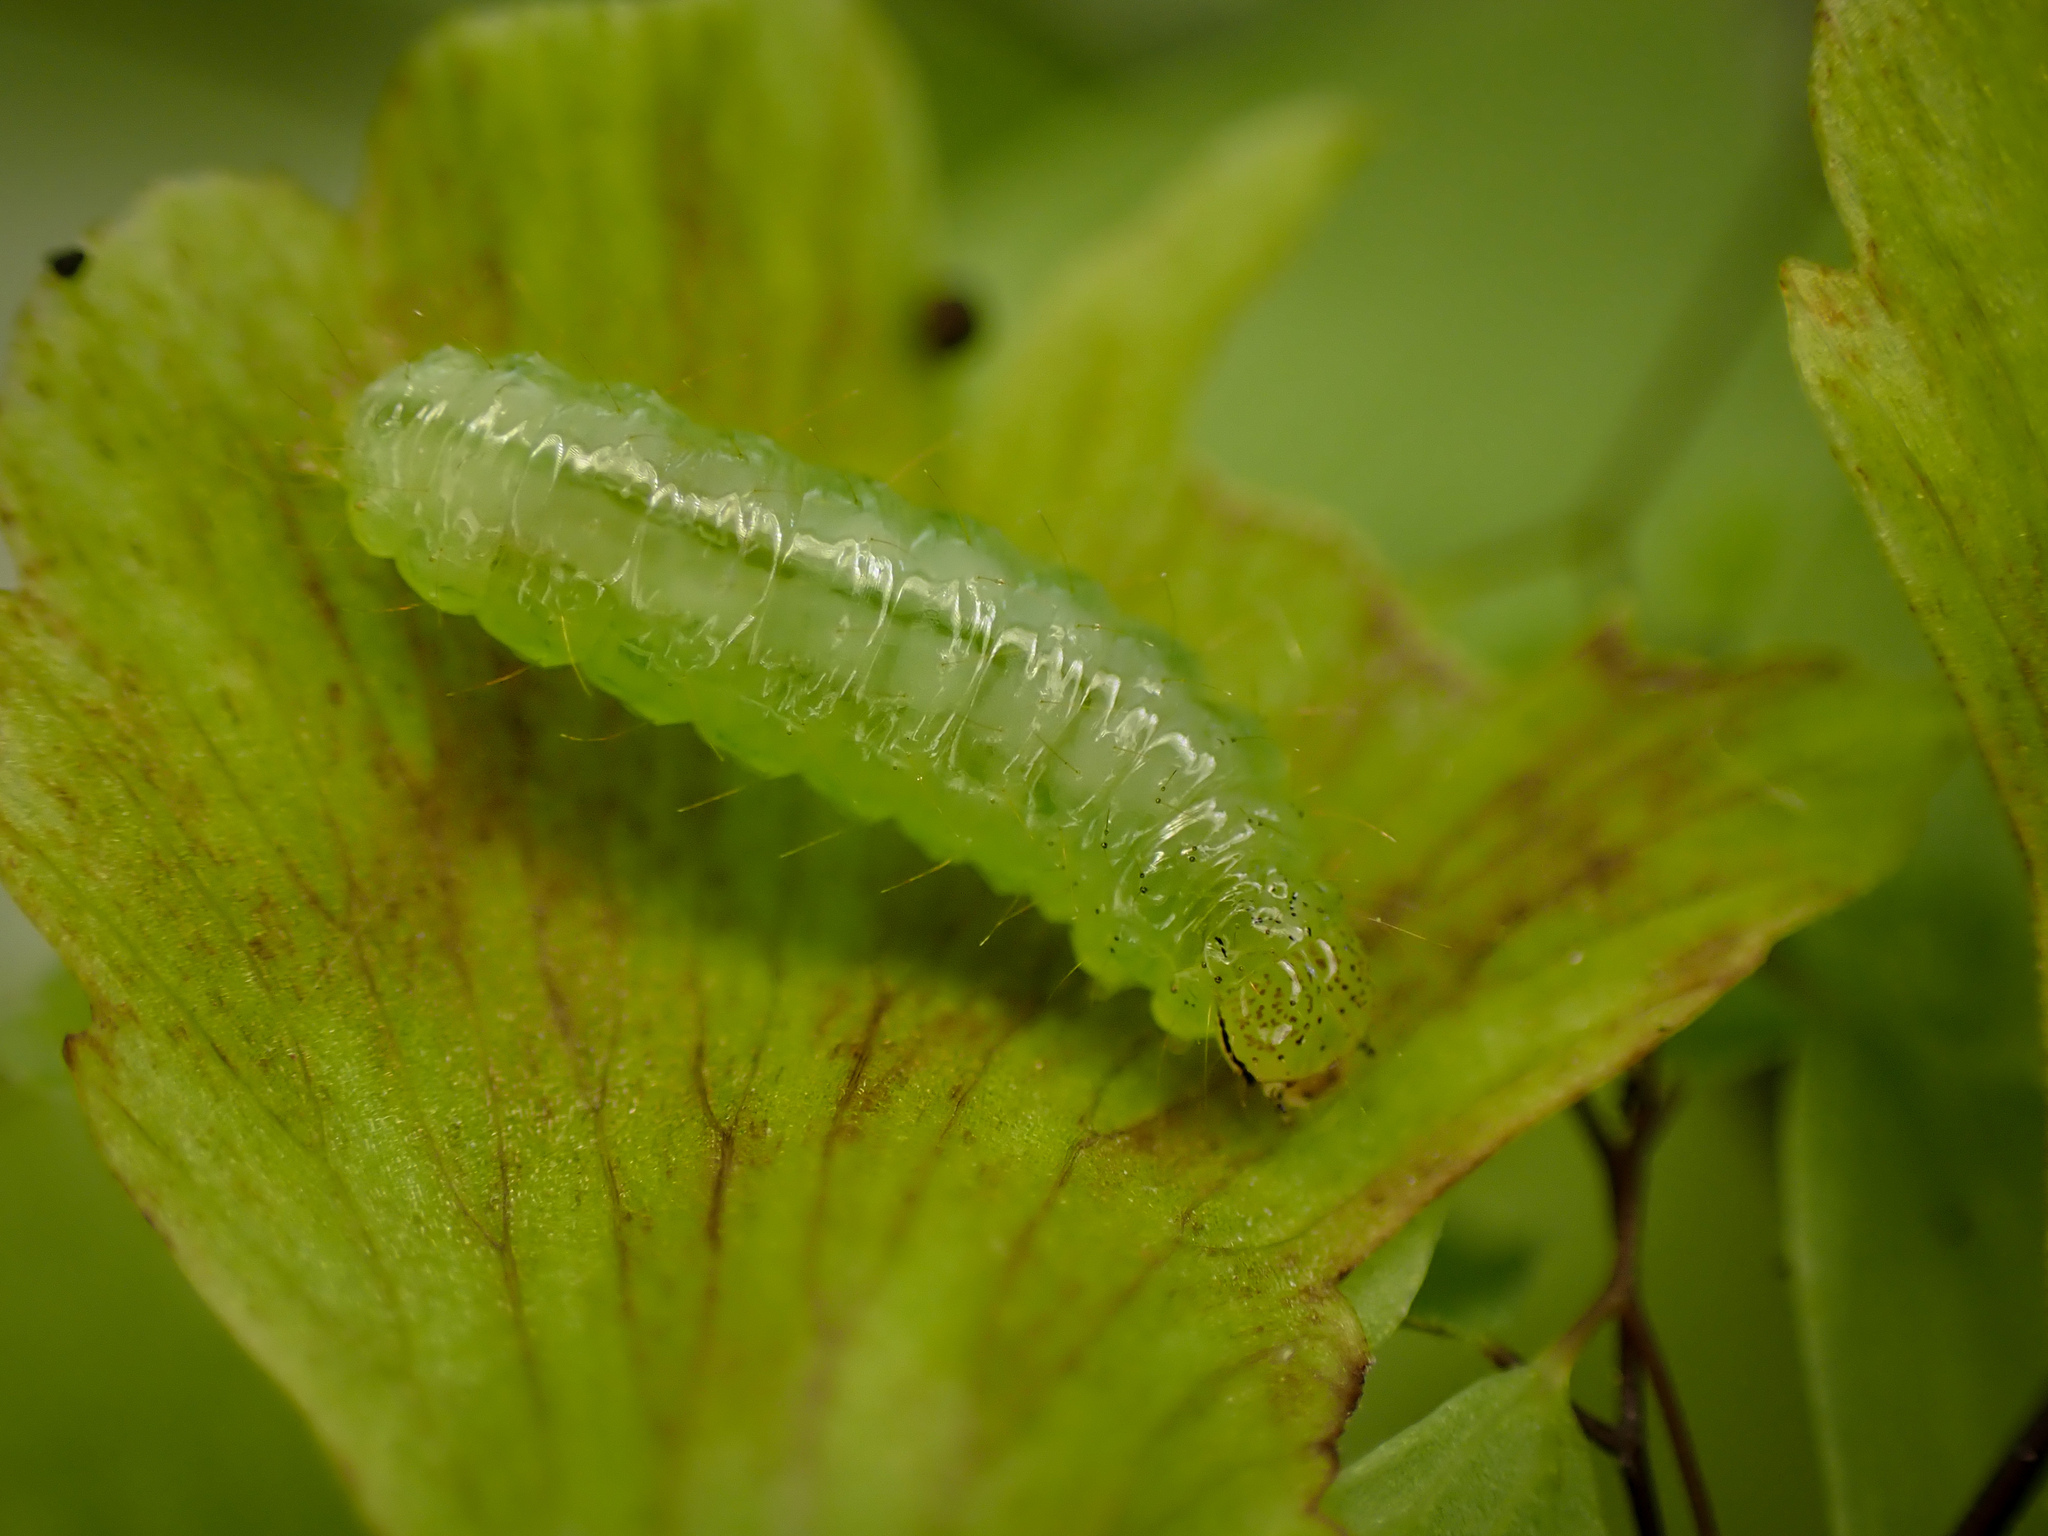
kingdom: Animalia
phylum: Arthropoda
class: Insecta
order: Lepidoptera
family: Pyralidae
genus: Musotima
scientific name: Musotima ochropteralis
